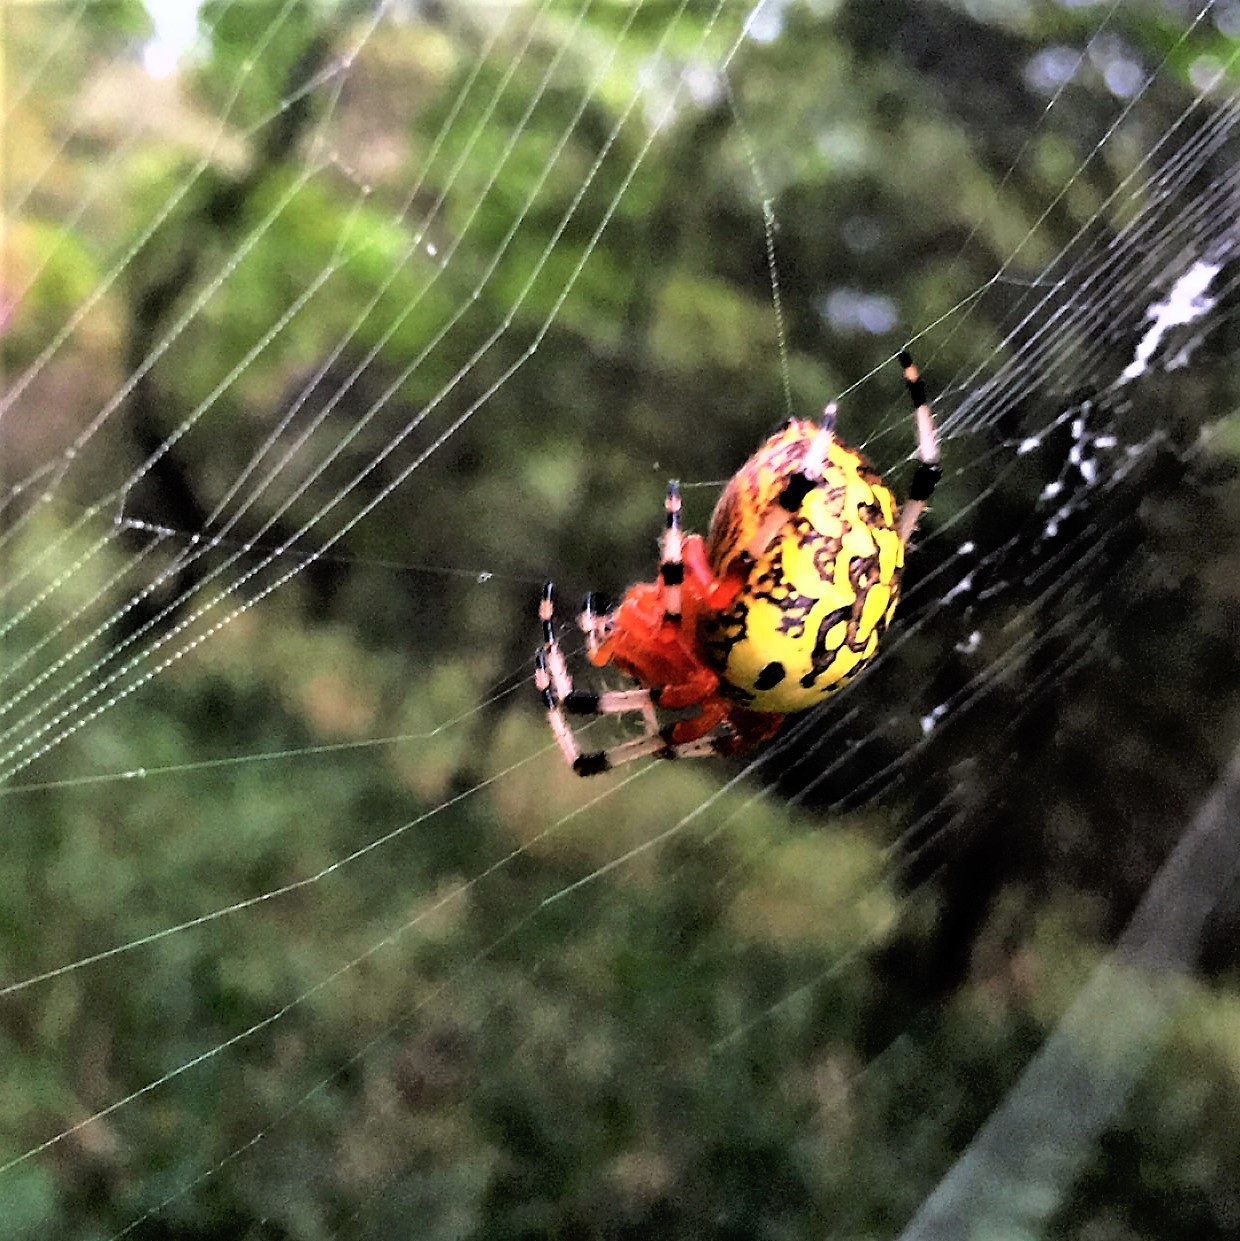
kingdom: Animalia
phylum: Arthropoda
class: Arachnida
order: Araneae
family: Araneidae
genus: Araneus
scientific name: Araneus marmoreus
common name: Marbled orbweaver
